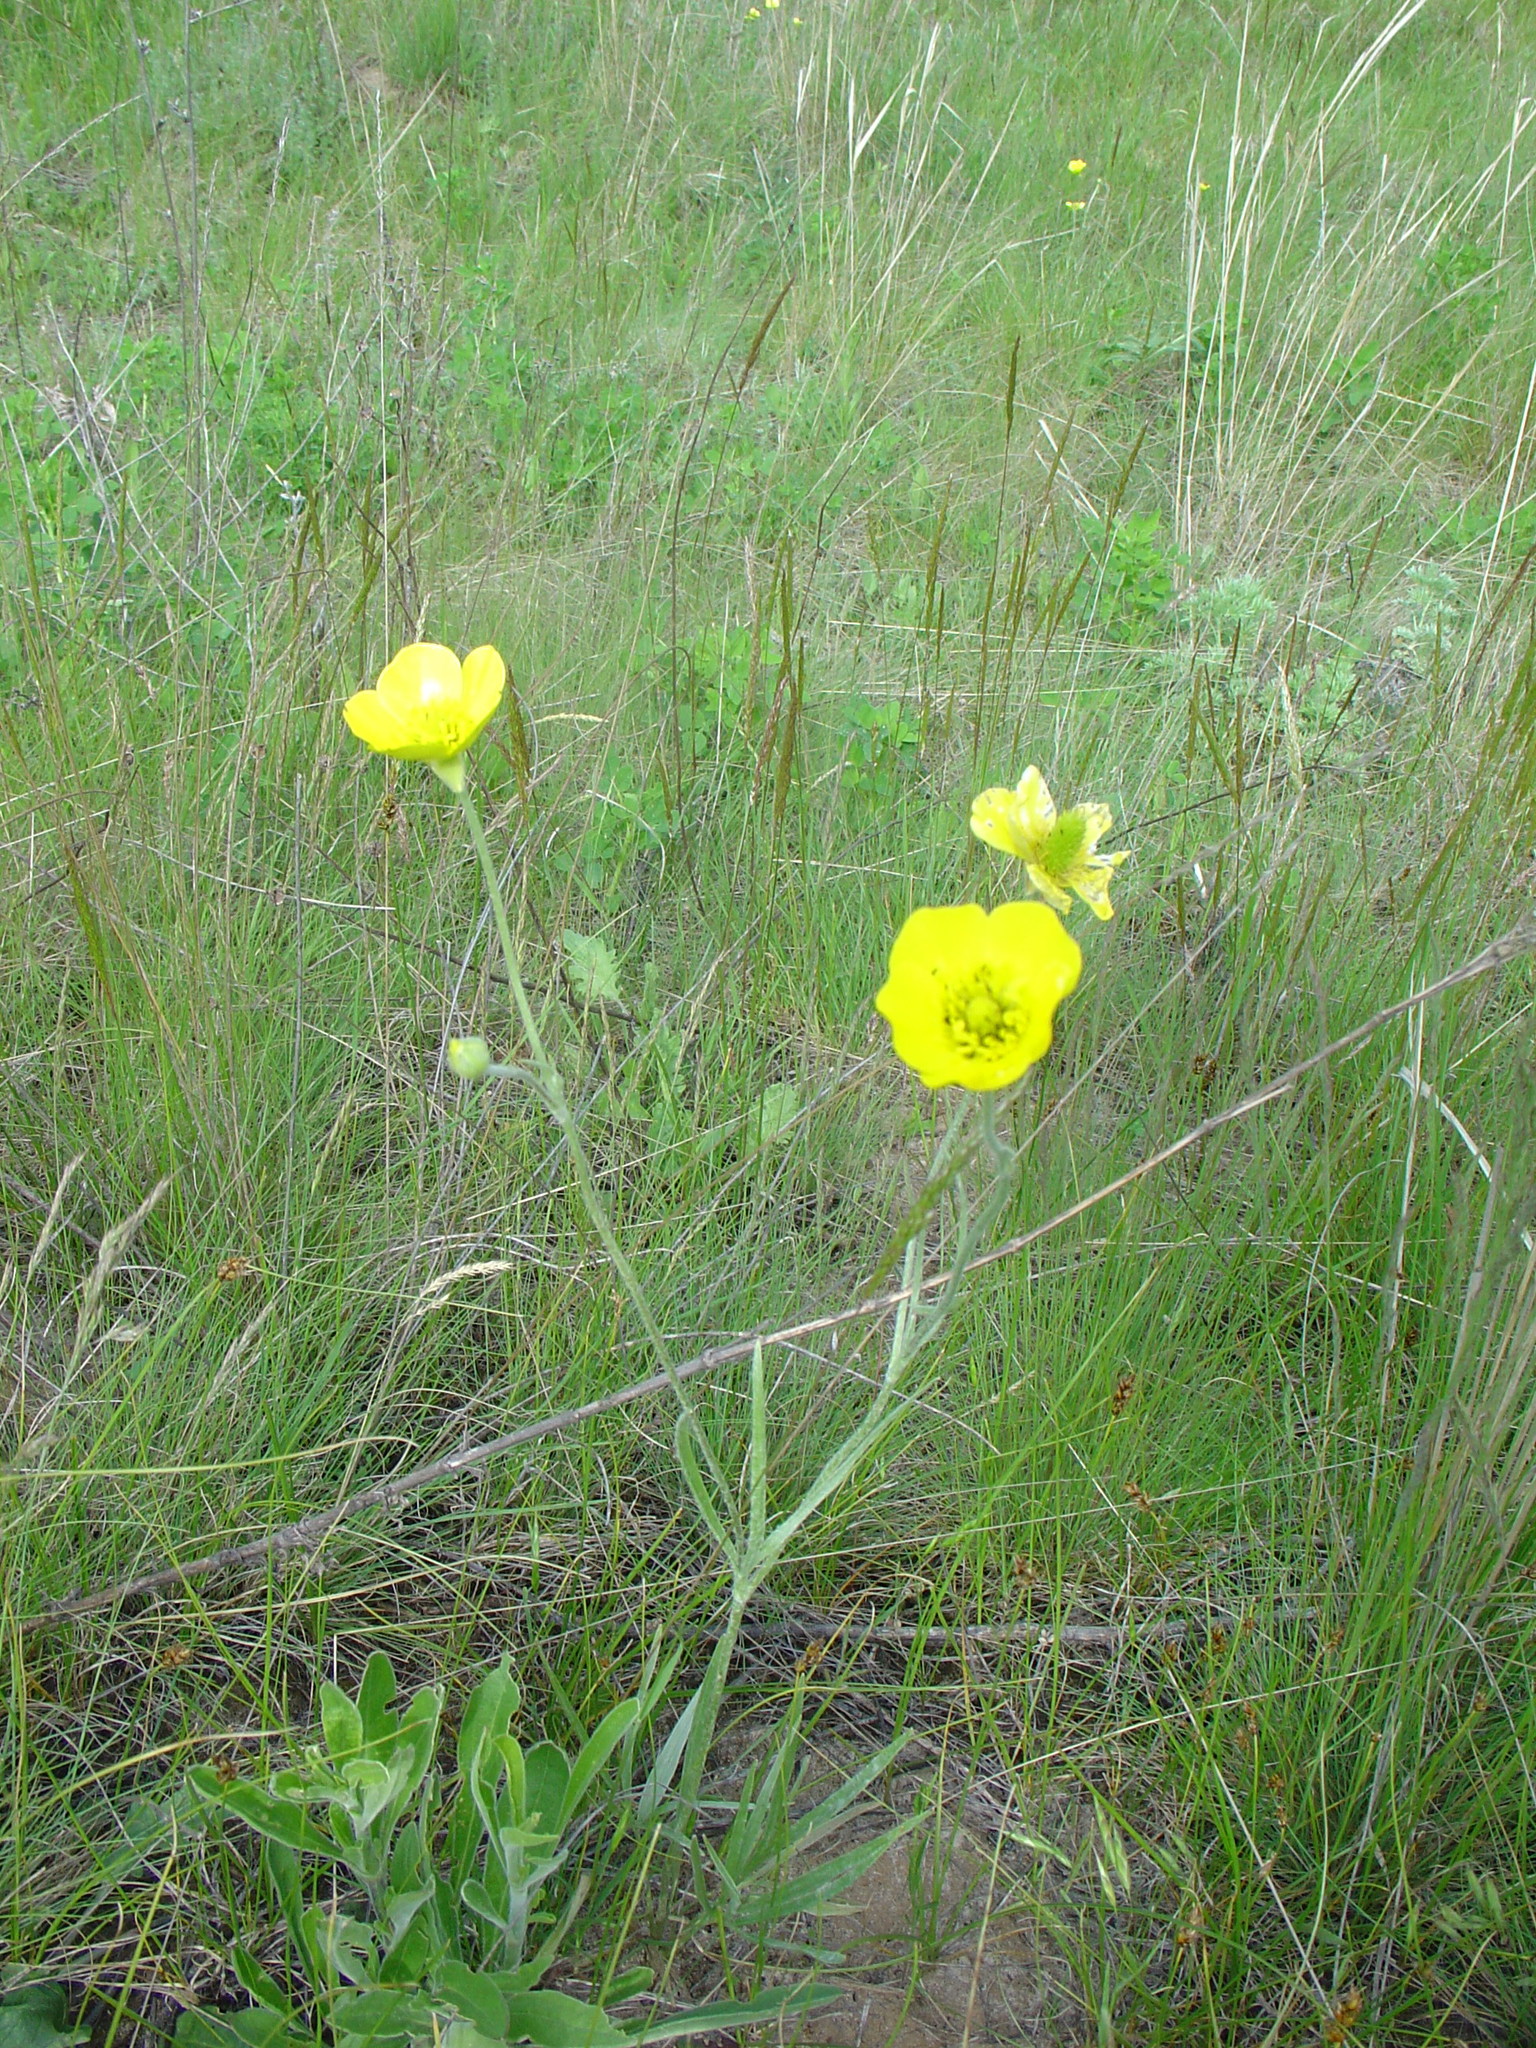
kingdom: Plantae
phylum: Tracheophyta
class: Magnoliopsida
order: Ranunculales
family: Ranunculaceae
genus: Ranunculus
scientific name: Ranunculus illyricus
